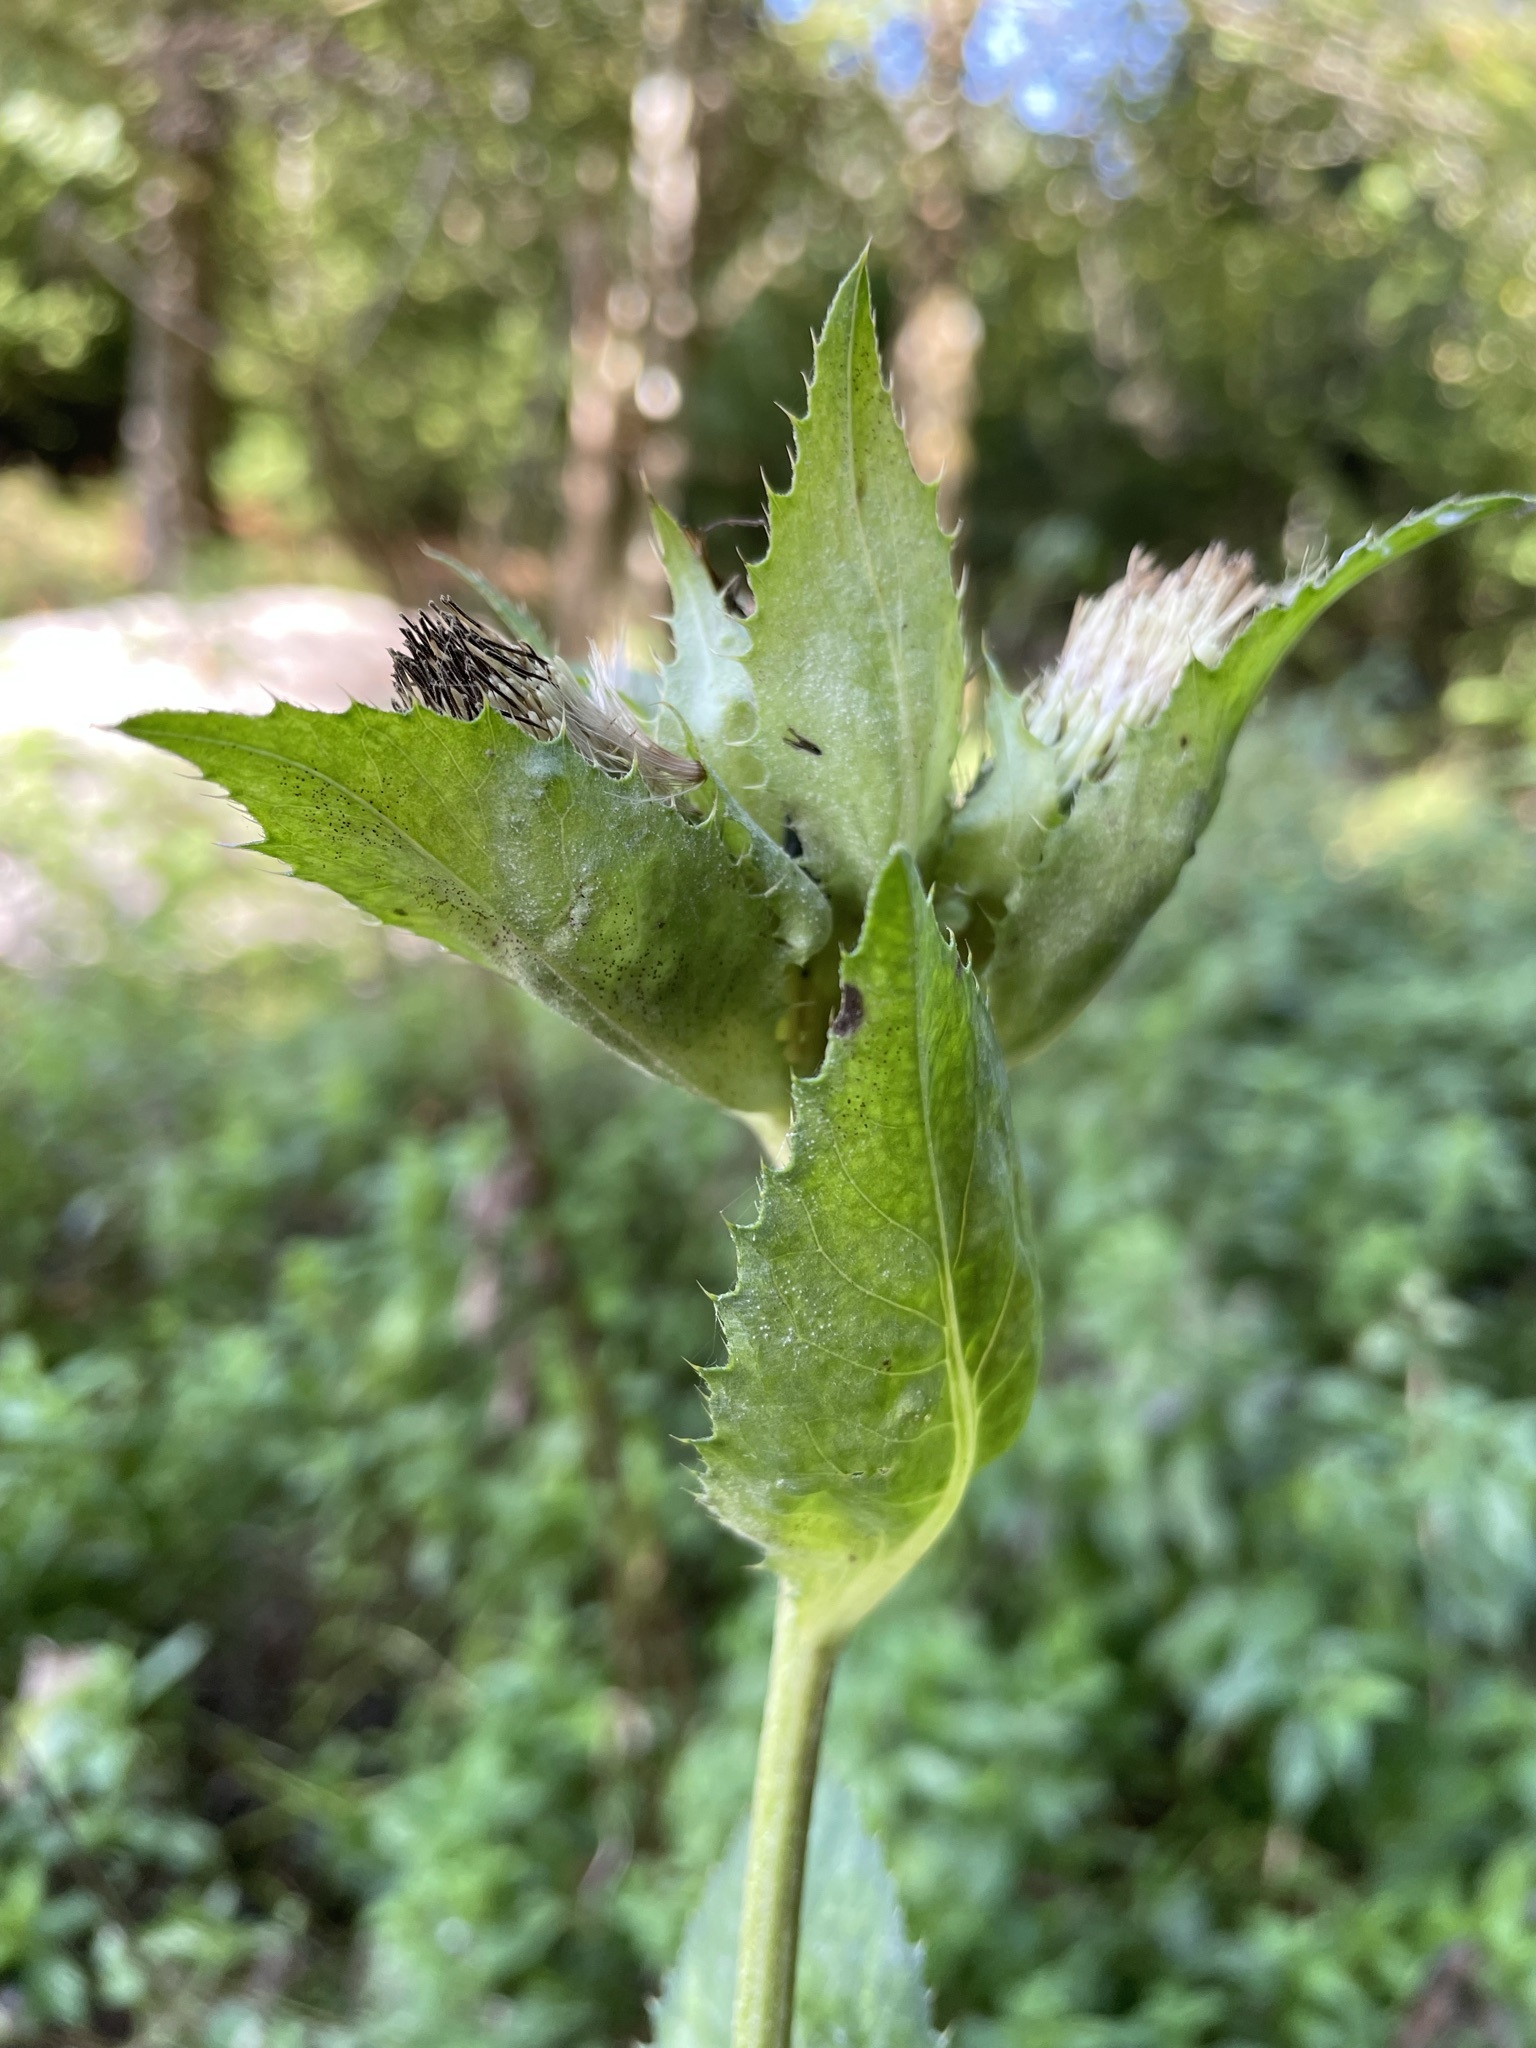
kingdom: Plantae
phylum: Tracheophyta
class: Magnoliopsida
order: Asterales
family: Asteraceae
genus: Cirsium
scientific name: Cirsium oleraceum
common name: Cabbage thistle
